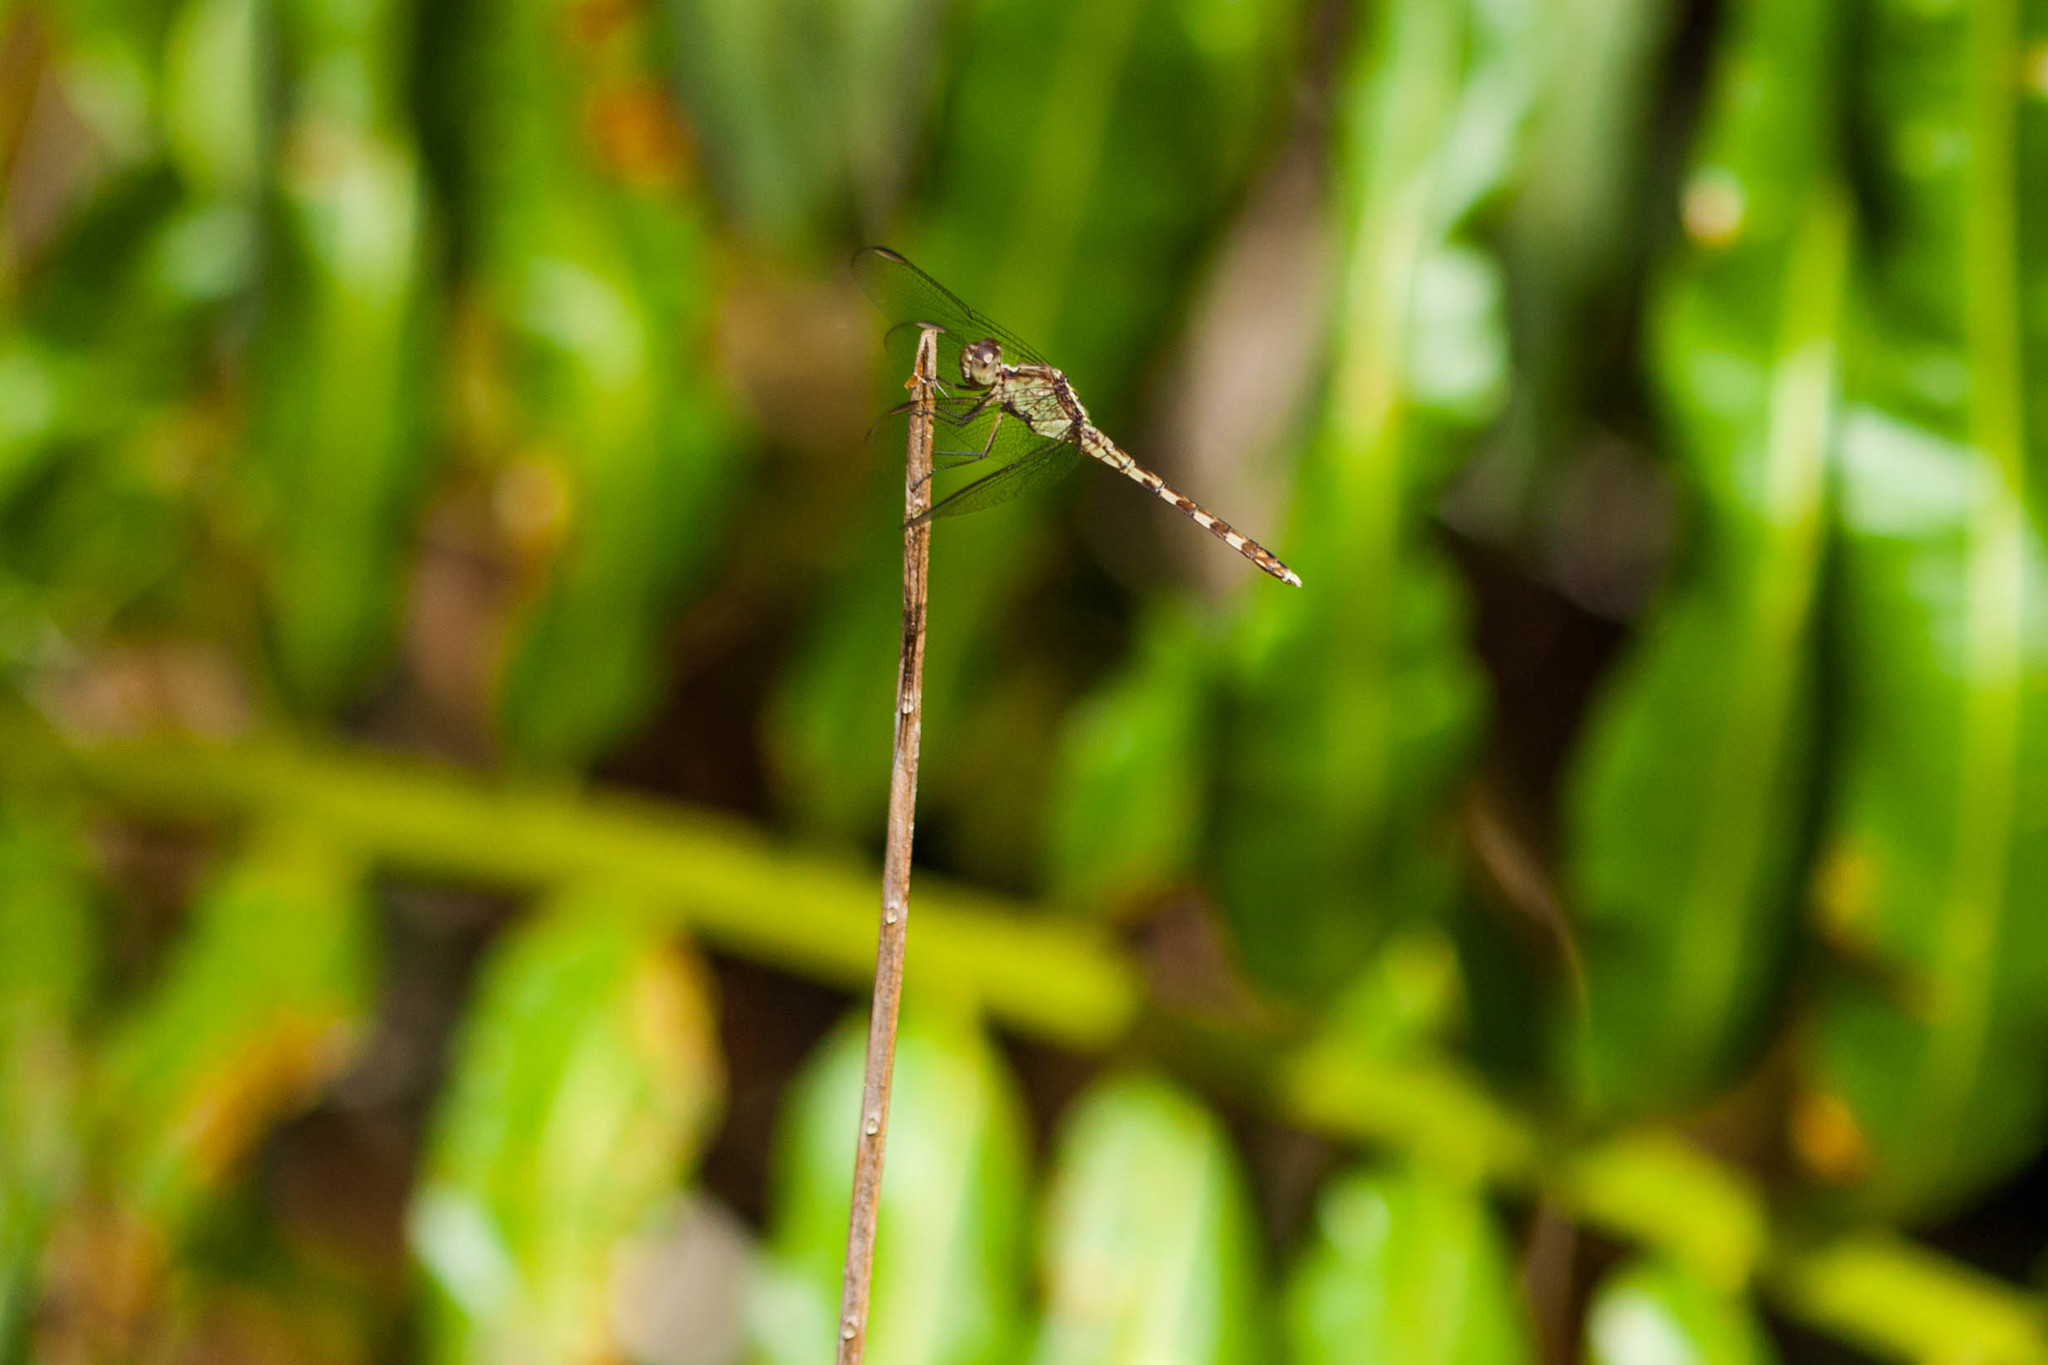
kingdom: Animalia
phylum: Arthropoda
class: Insecta
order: Odonata
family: Libellulidae
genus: Erythrodiplax
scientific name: Erythrodiplax umbrata
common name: Band-winged dragonlet
